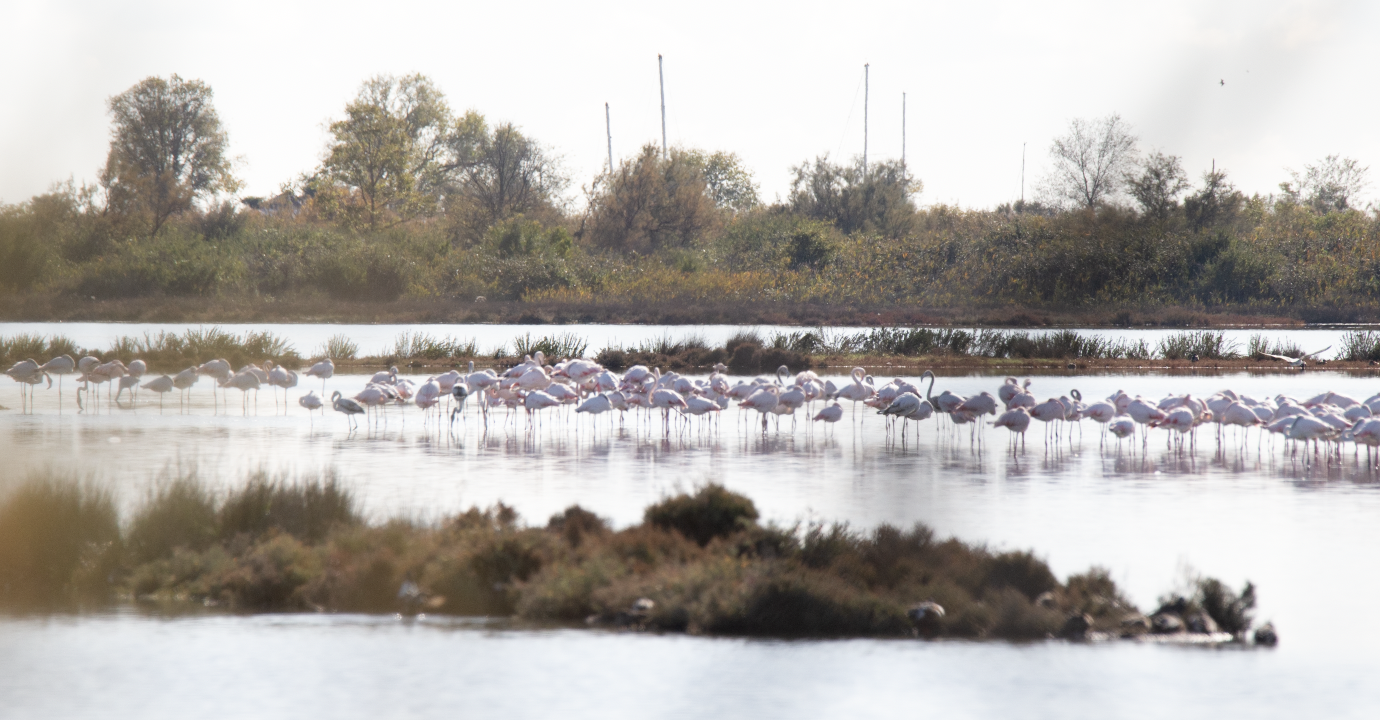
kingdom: Animalia
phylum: Chordata
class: Aves
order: Phoenicopteriformes
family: Phoenicopteridae
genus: Phoenicopterus
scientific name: Phoenicopterus roseus
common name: Greater flamingo
